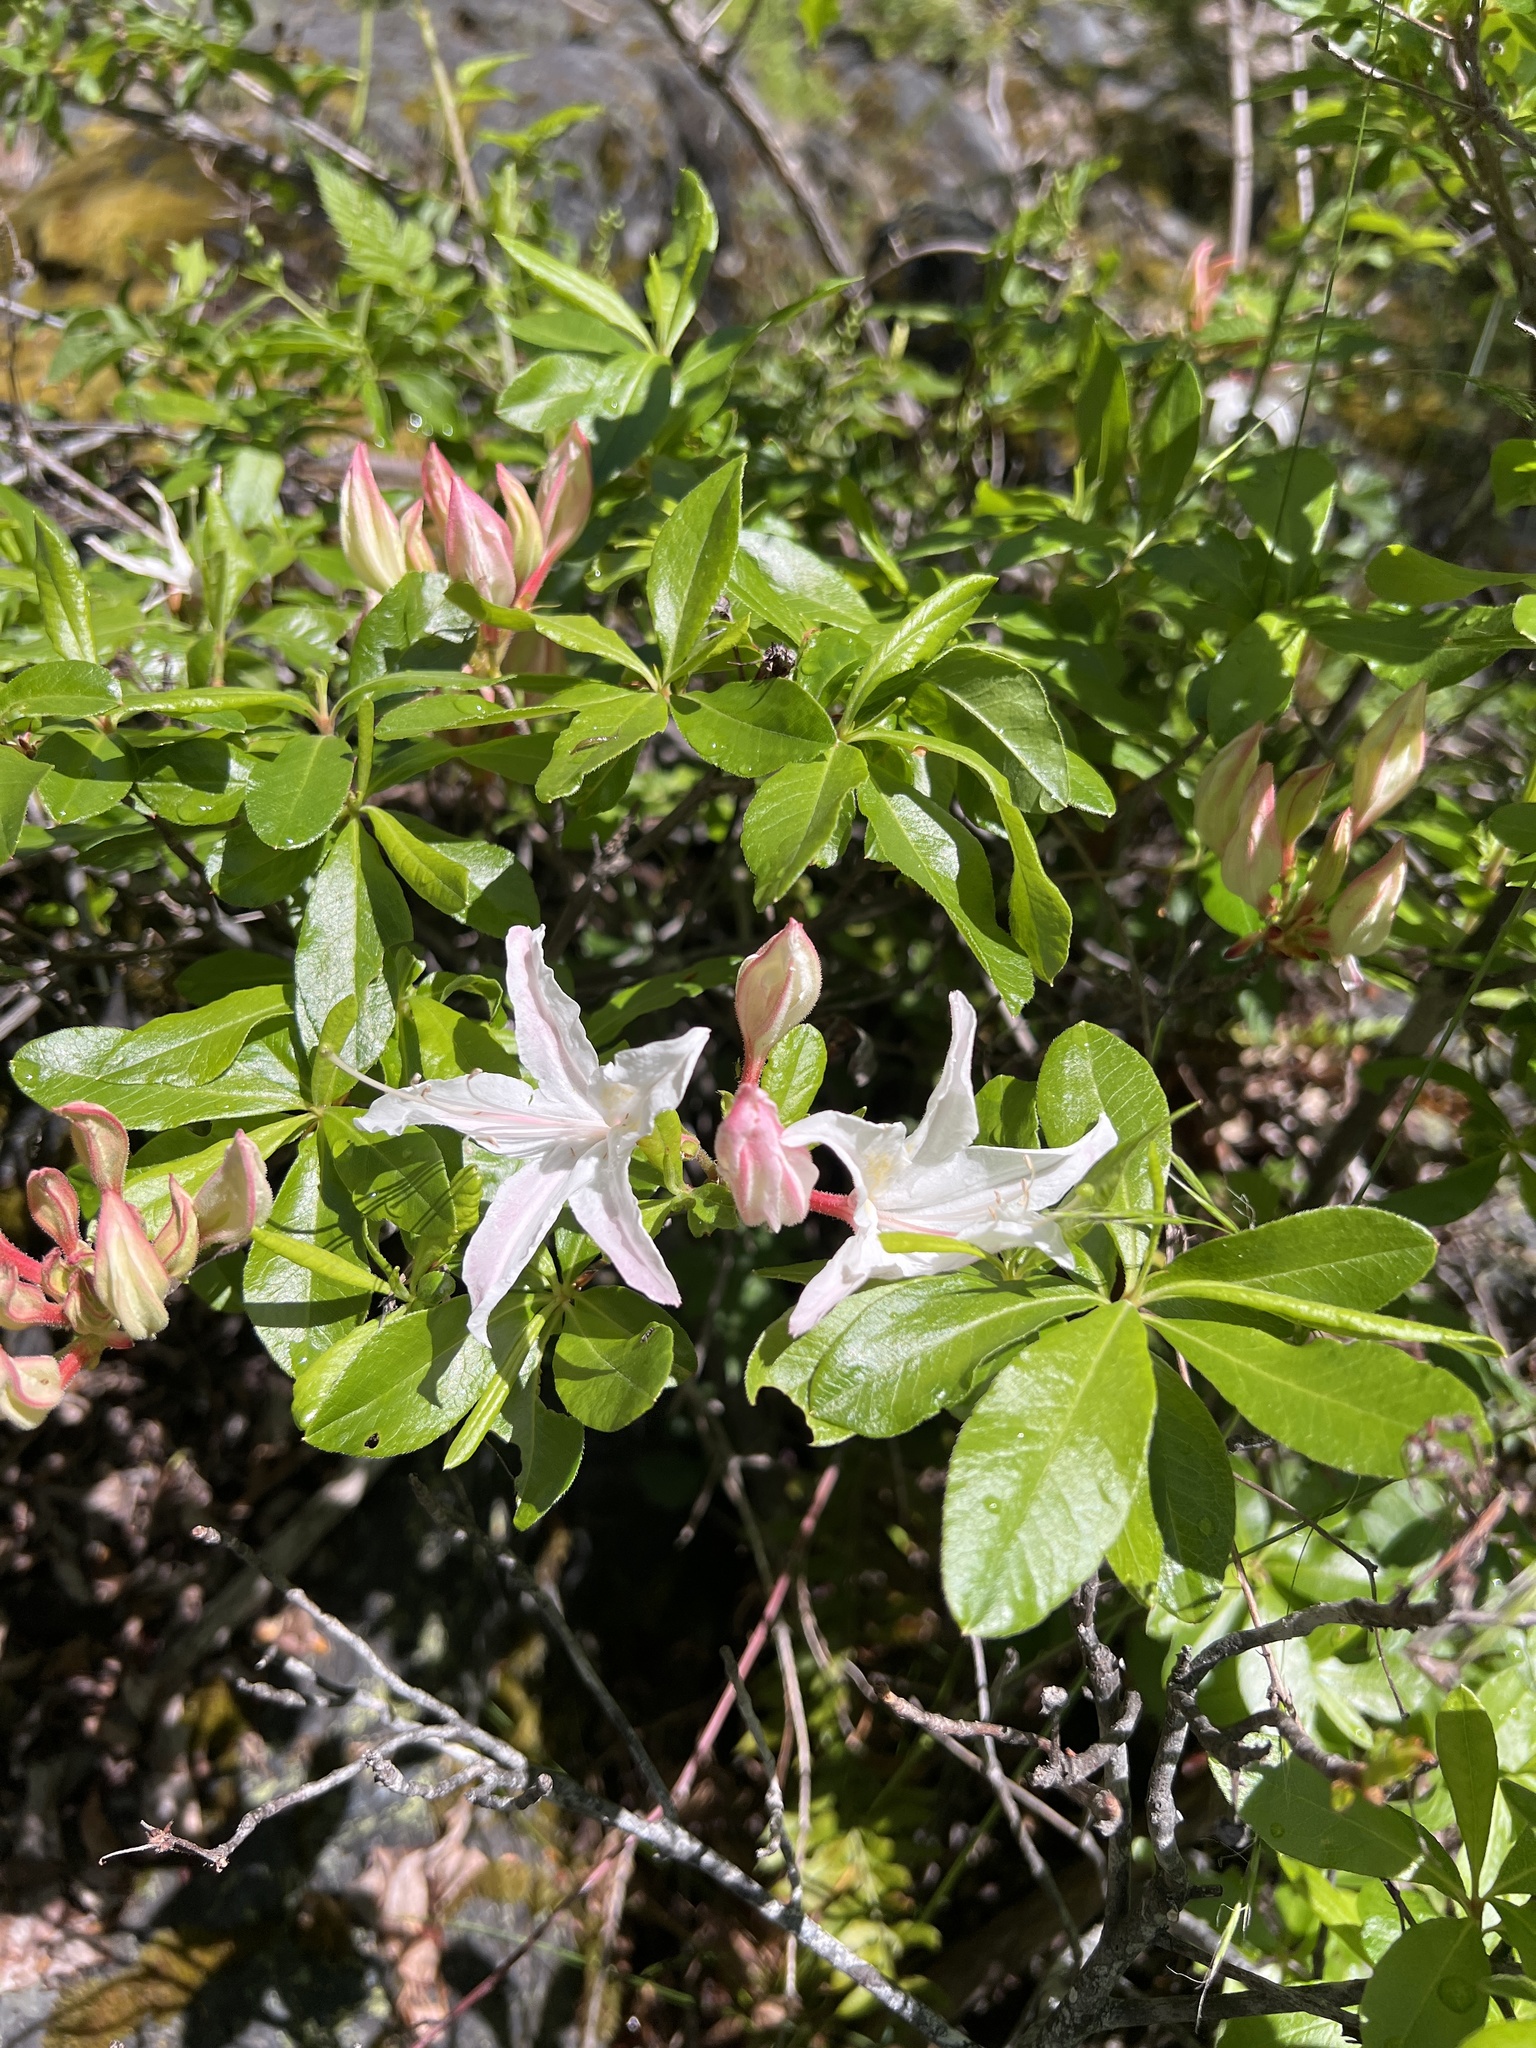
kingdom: Plantae
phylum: Tracheophyta
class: Magnoliopsida
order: Ericales
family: Ericaceae
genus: Rhododendron
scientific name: Rhododendron occidentale
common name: Western azalea
